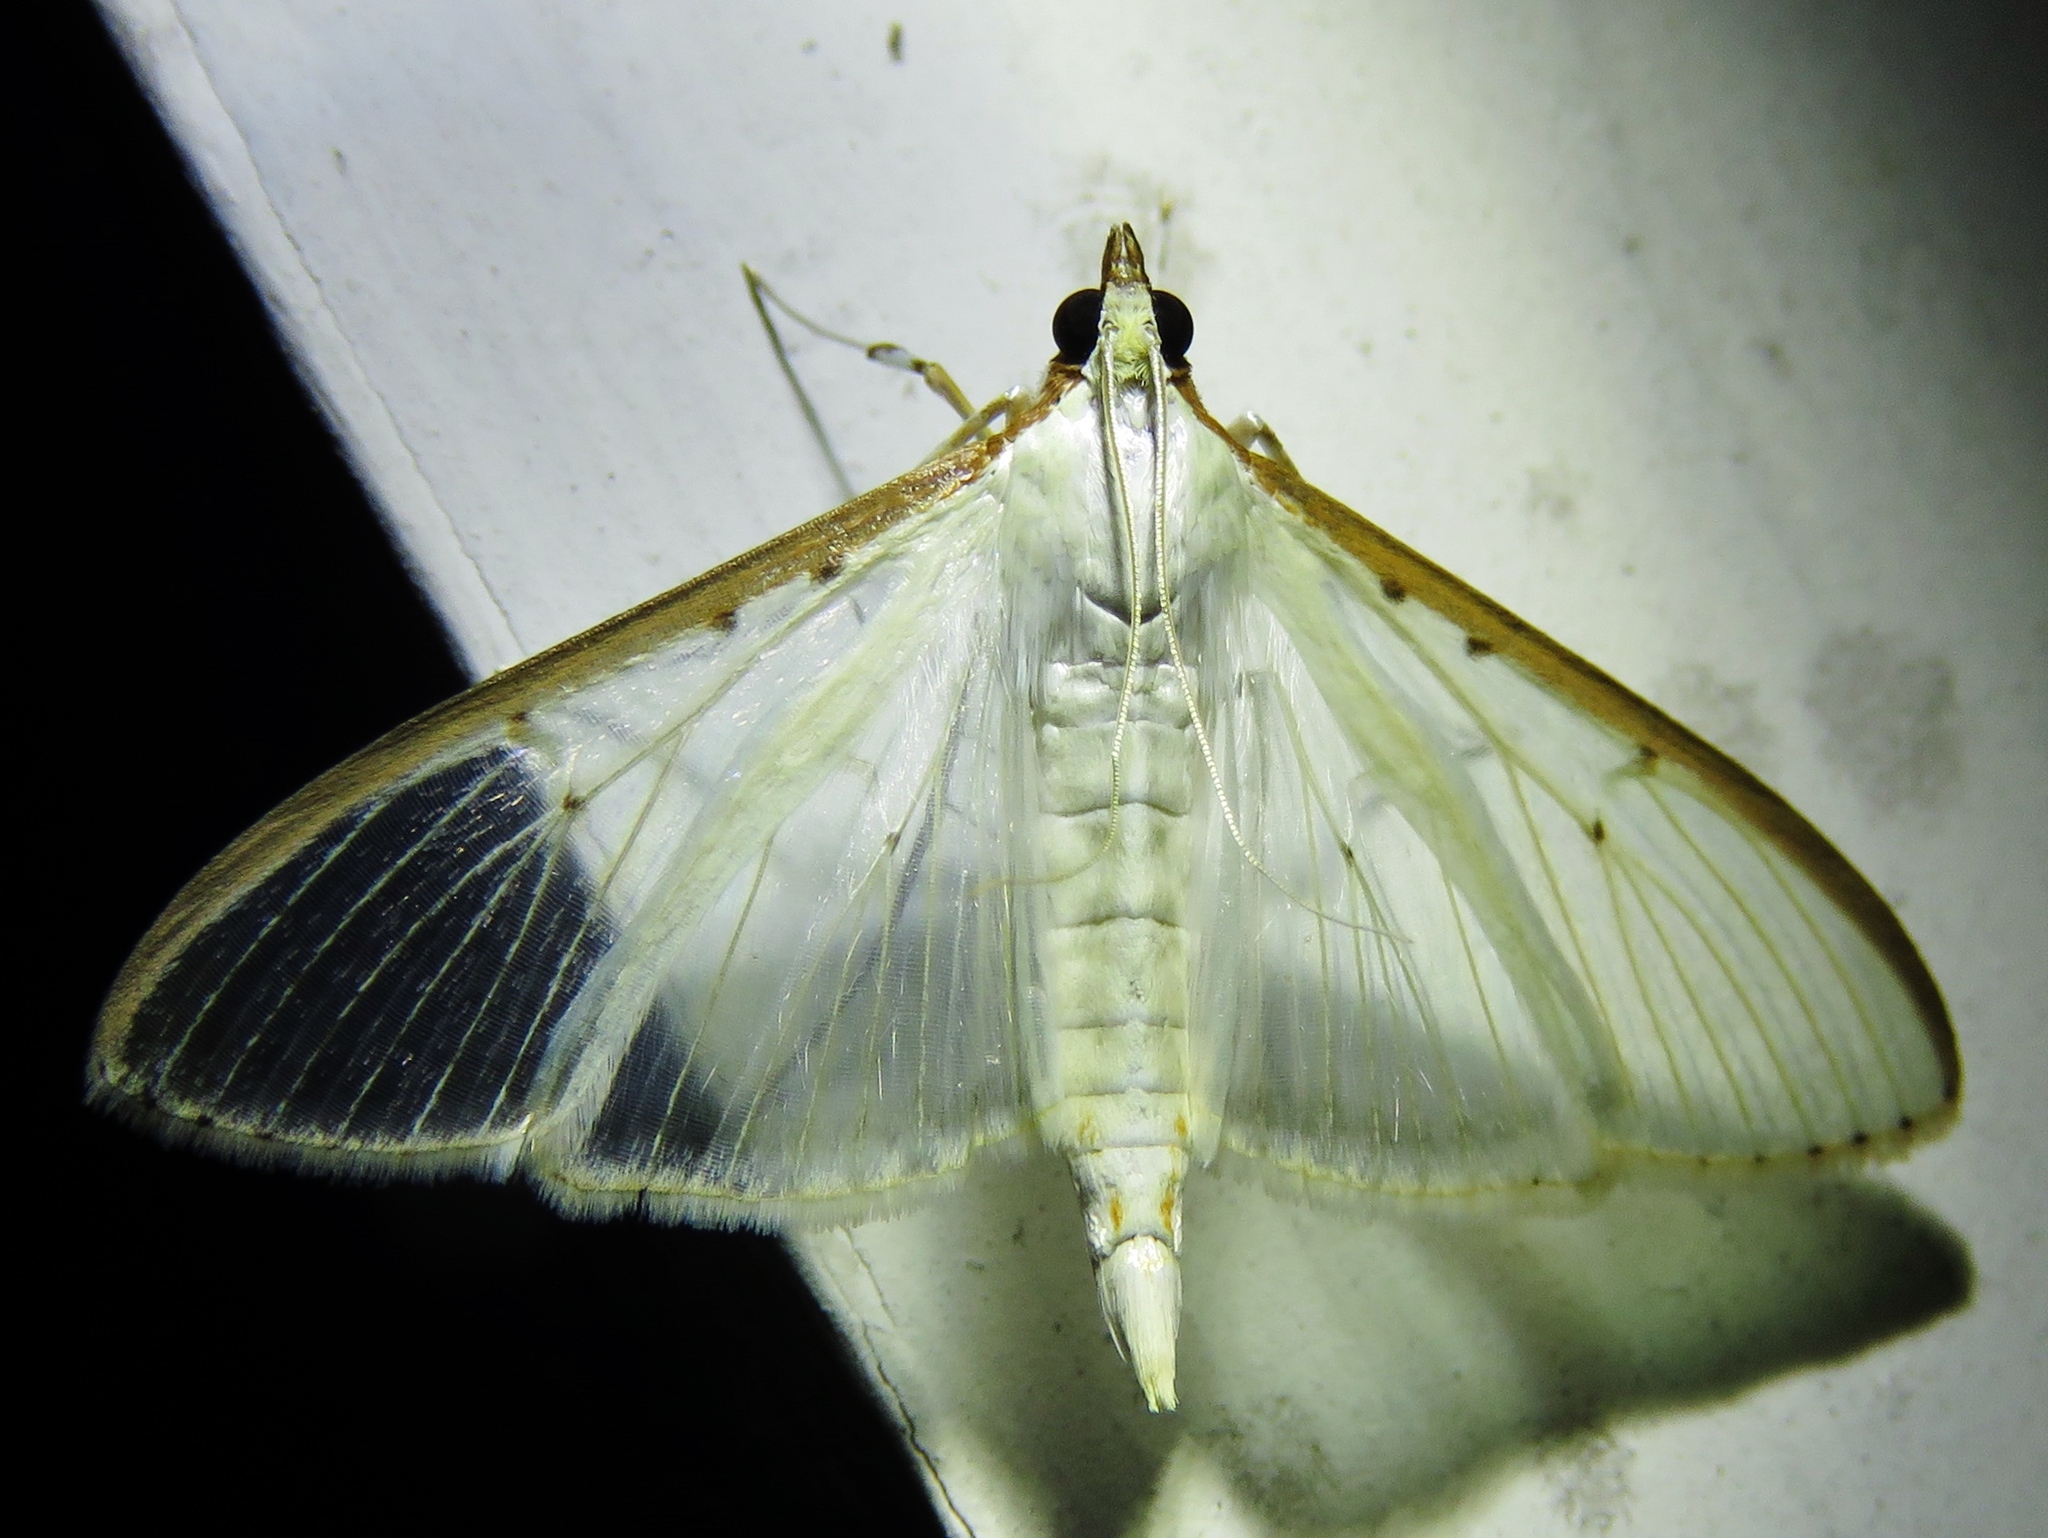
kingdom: Animalia
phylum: Arthropoda
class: Insecta
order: Lepidoptera
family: Crambidae
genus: Palpita
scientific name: Palpita quadristigmalis
